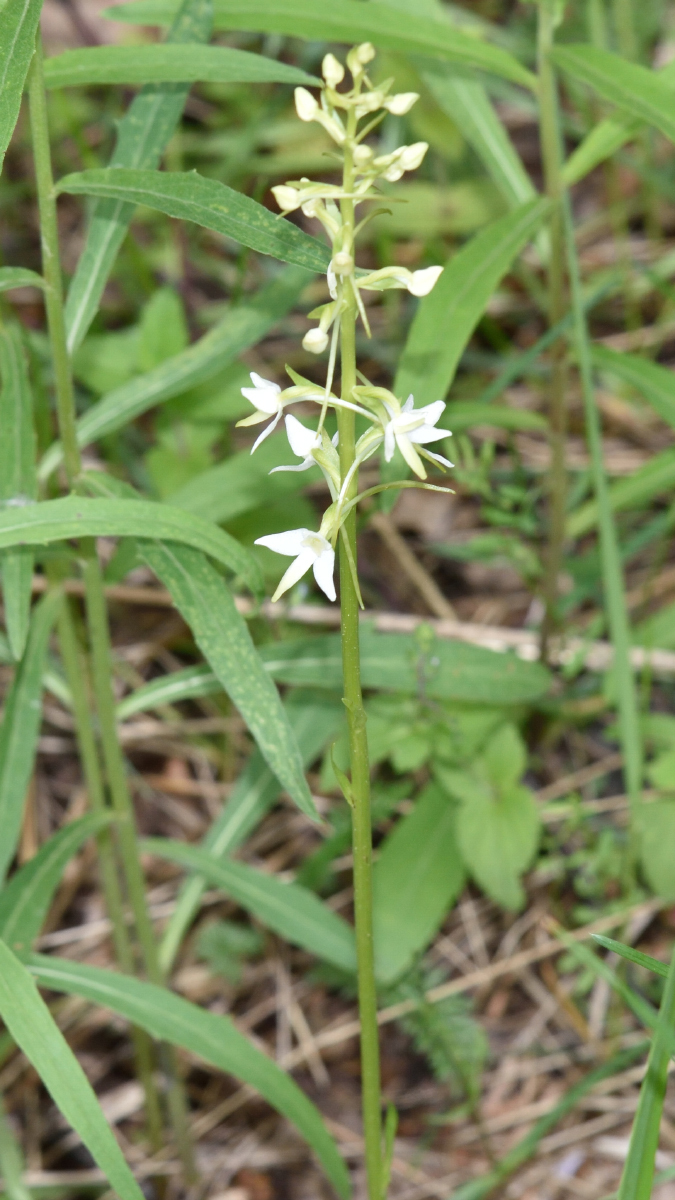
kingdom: Plantae
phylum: Tracheophyta
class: Liliopsida
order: Asparagales
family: Orchidaceae
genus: Platanthera
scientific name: Platanthera bifolia
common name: Lesser butterfly-orchid
